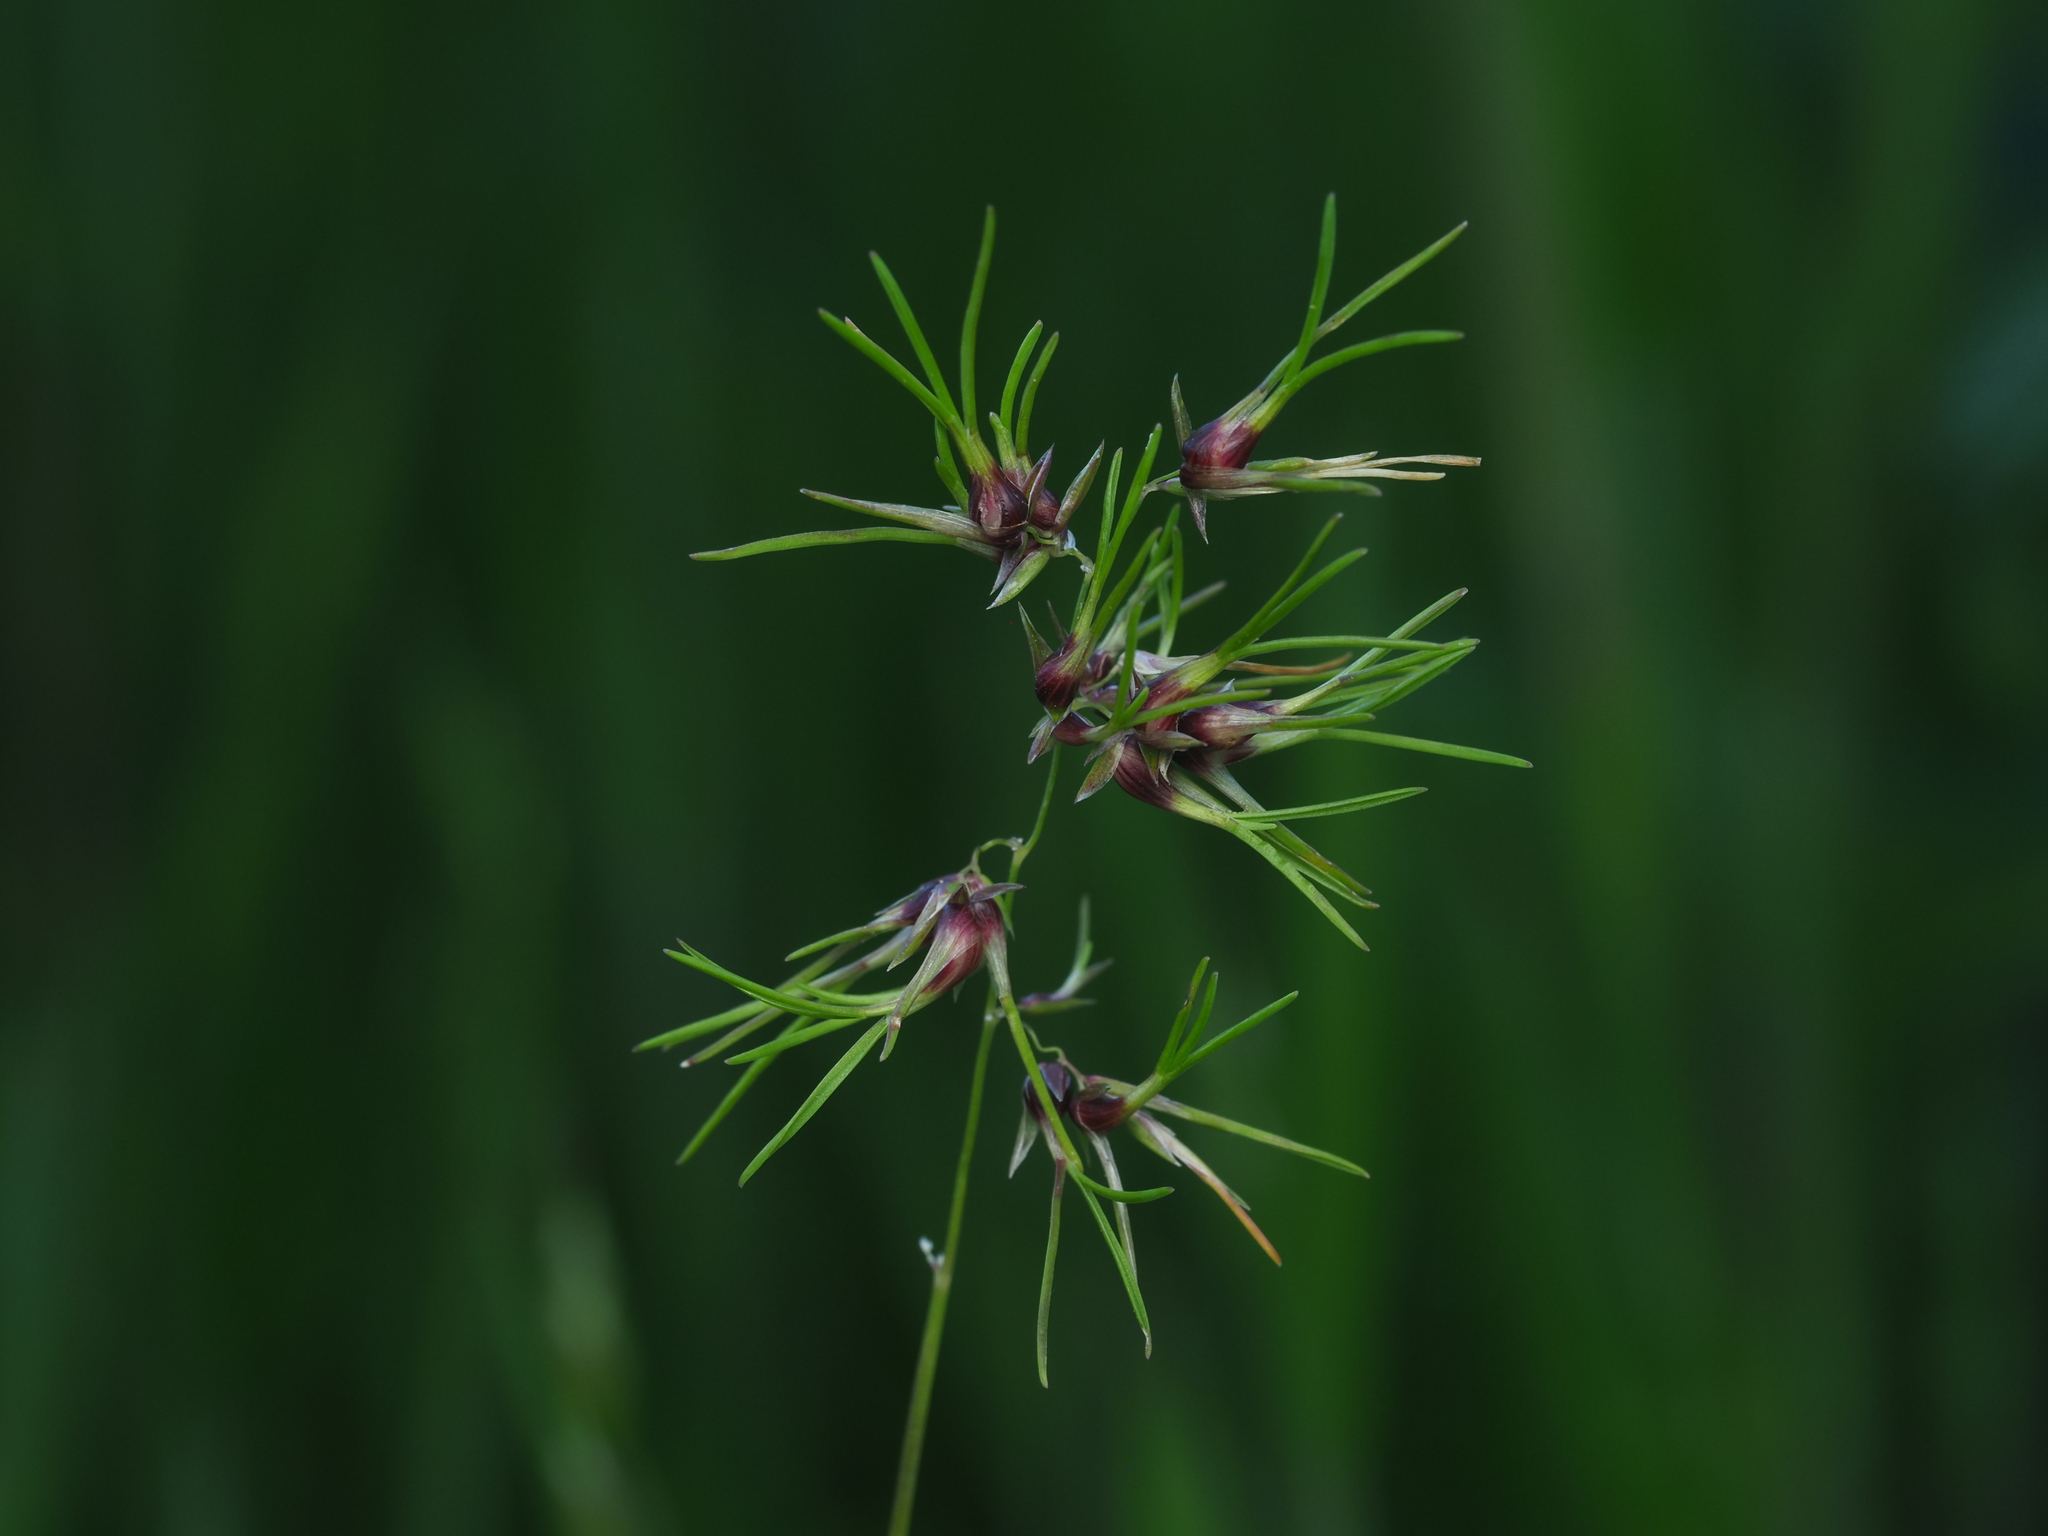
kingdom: Plantae
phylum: Tracheophyta
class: Liliopsida
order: Poales
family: Poaceae
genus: Poa
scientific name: Poa bulbosa
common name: Bulbous bluegrass
